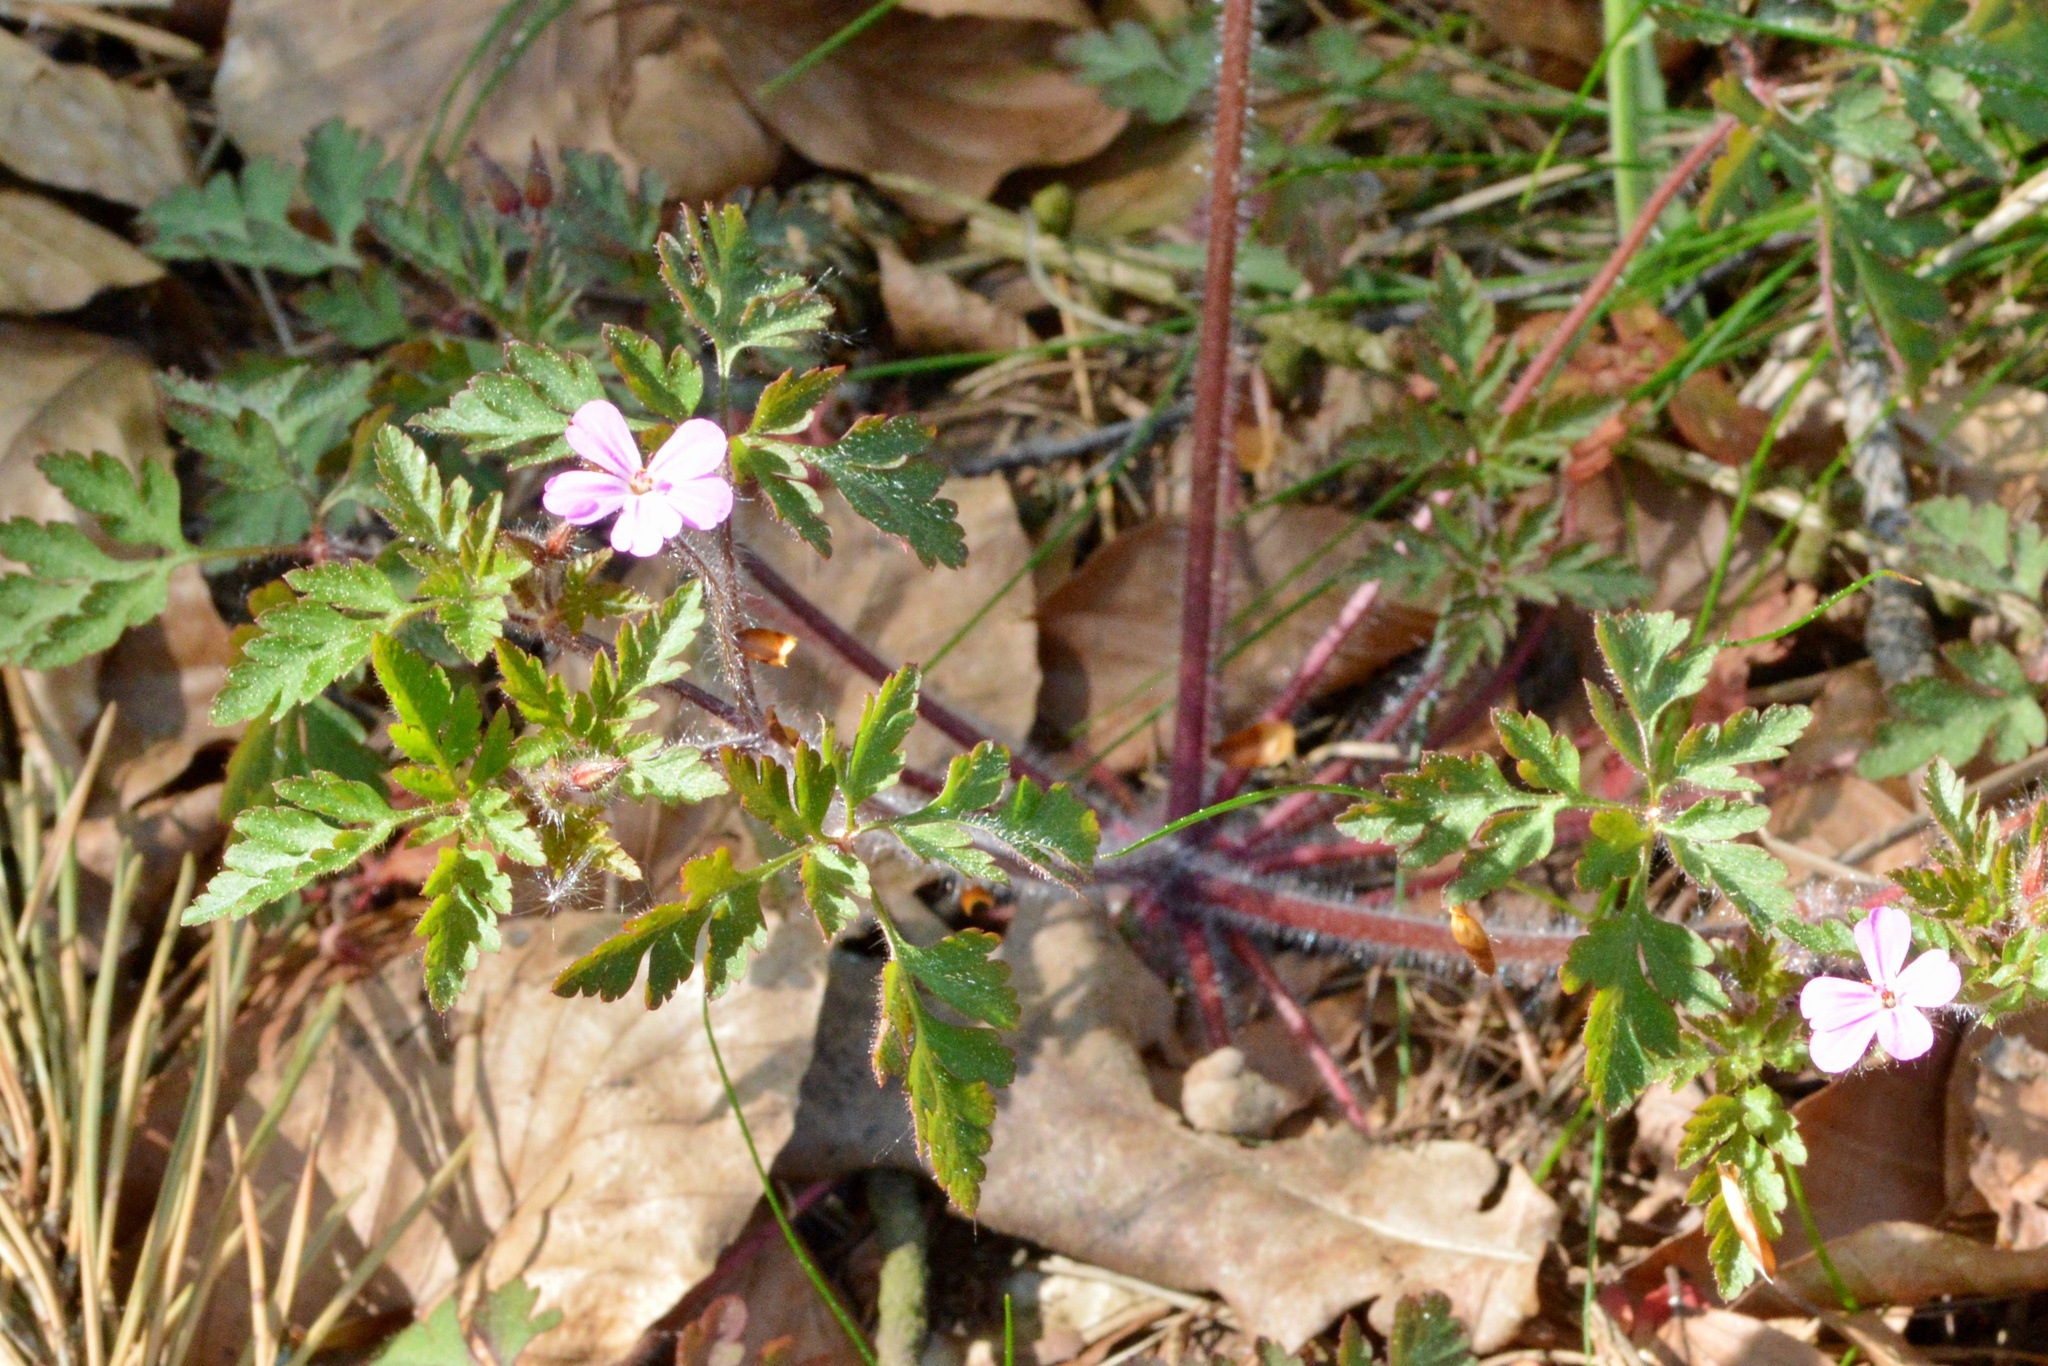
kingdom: Plantae
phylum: Tracheophyta
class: Magnoliopsida
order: Geraniales
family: Geraniaceae
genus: Geranium
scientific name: Geranium robertianum
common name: Herb-robert
